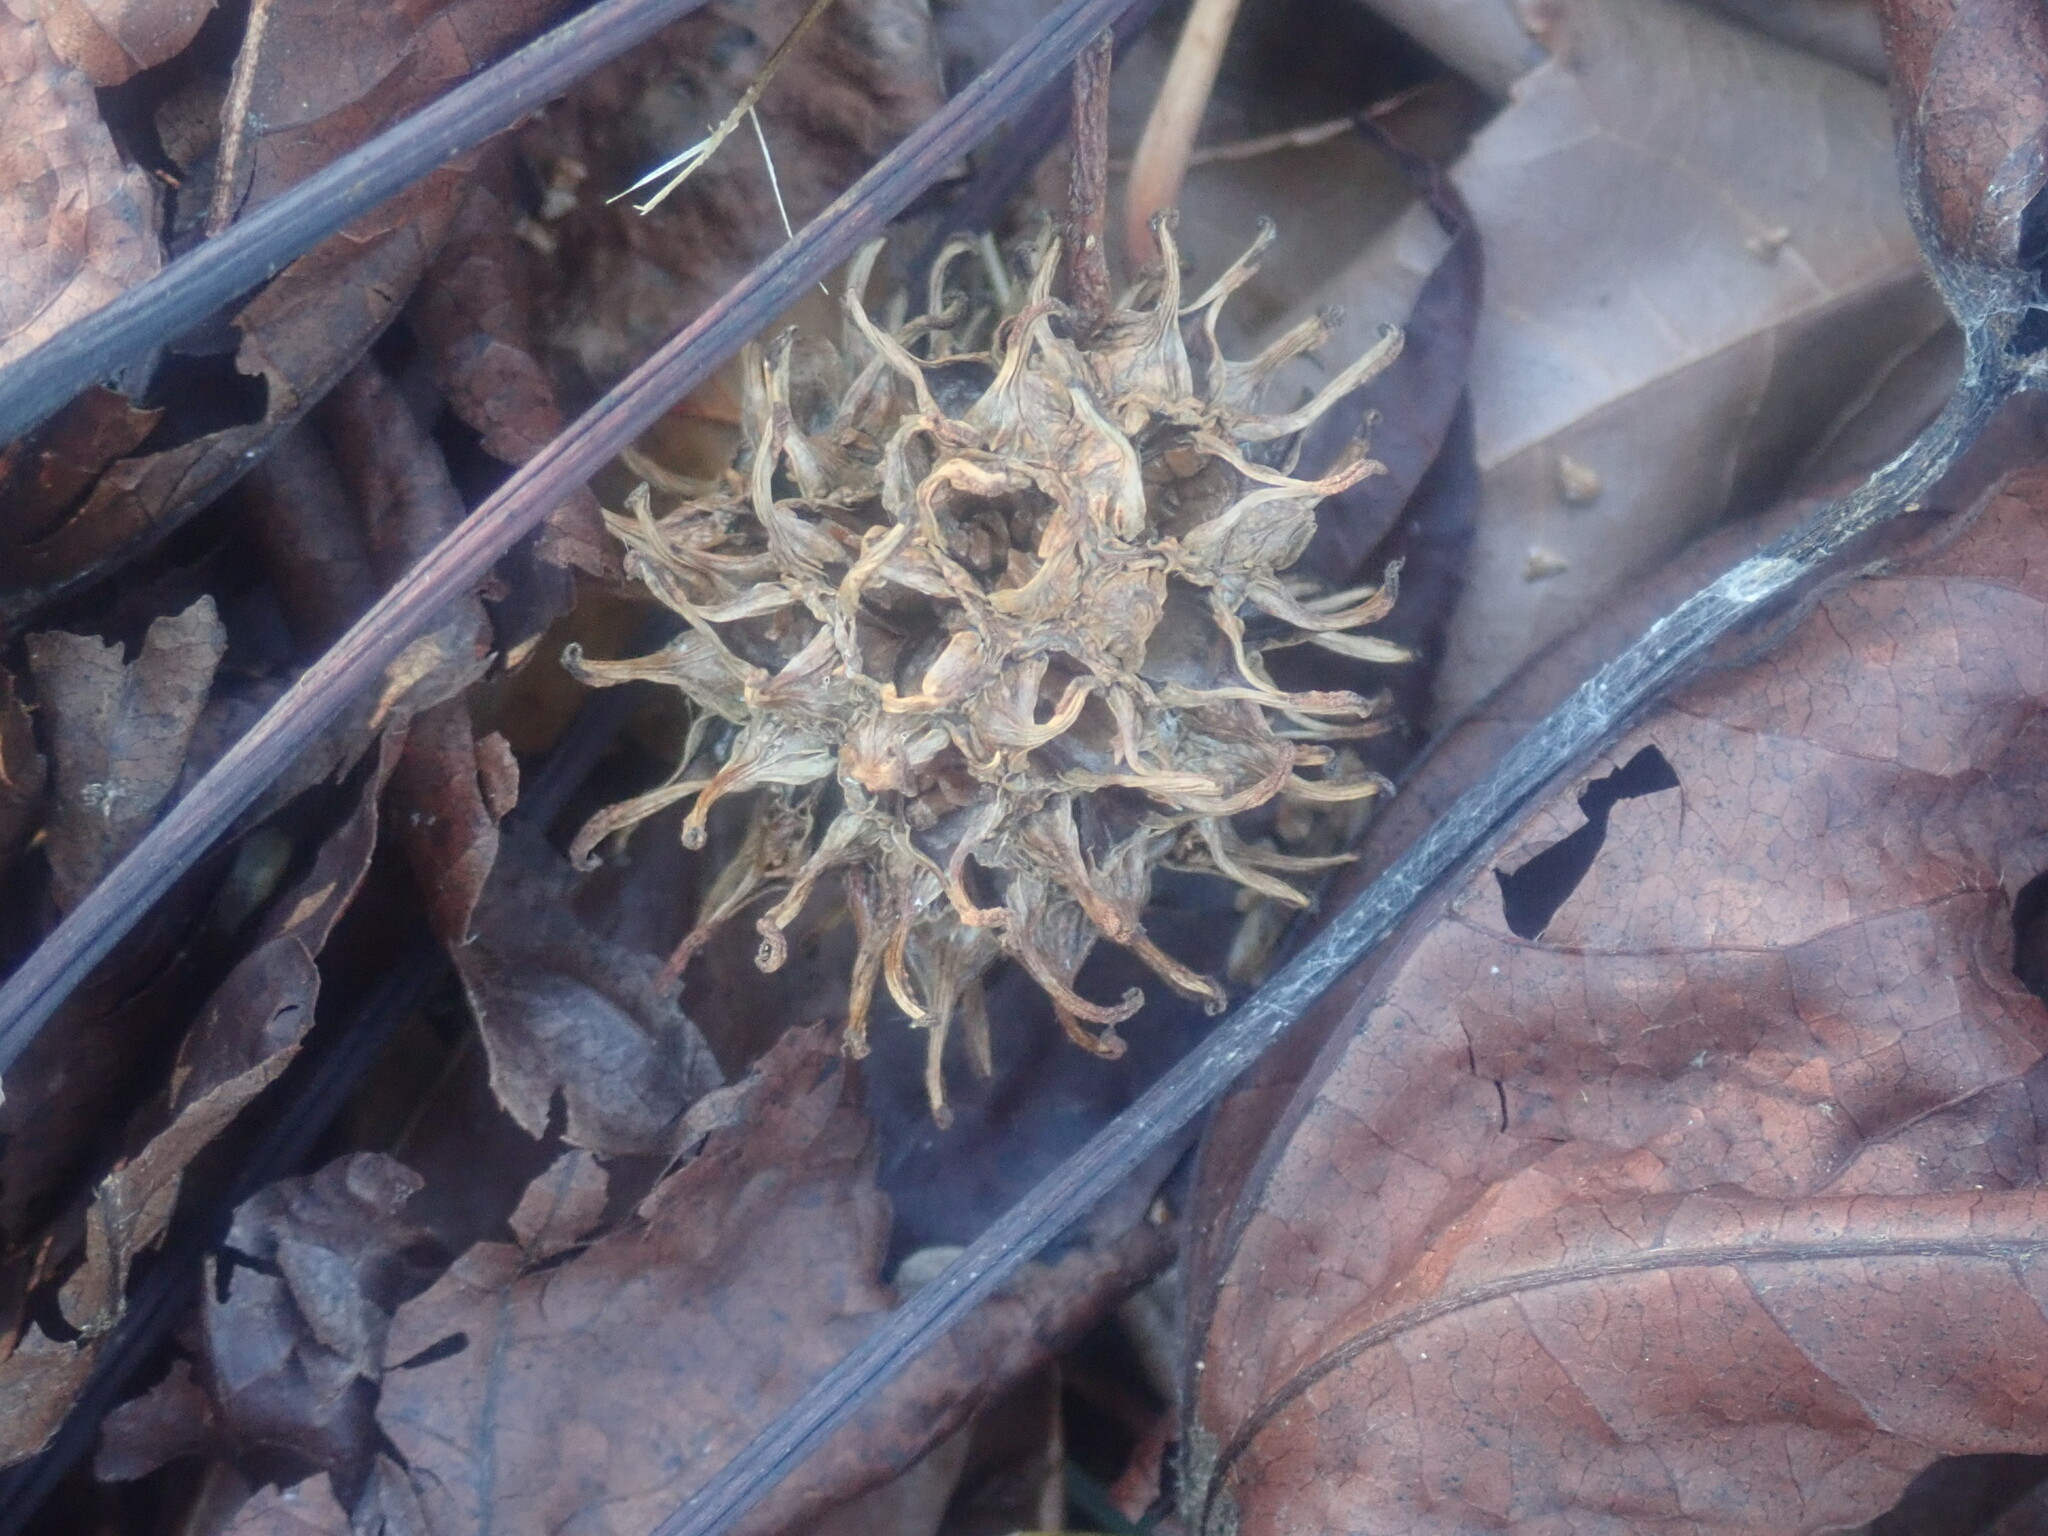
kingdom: Plantae
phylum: Tracheophyta
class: Magnoliopsida
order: Saxifragales
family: Altingiaceae
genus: Liquidambar
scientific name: Liquidambar styraciflua
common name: Sweet gum
